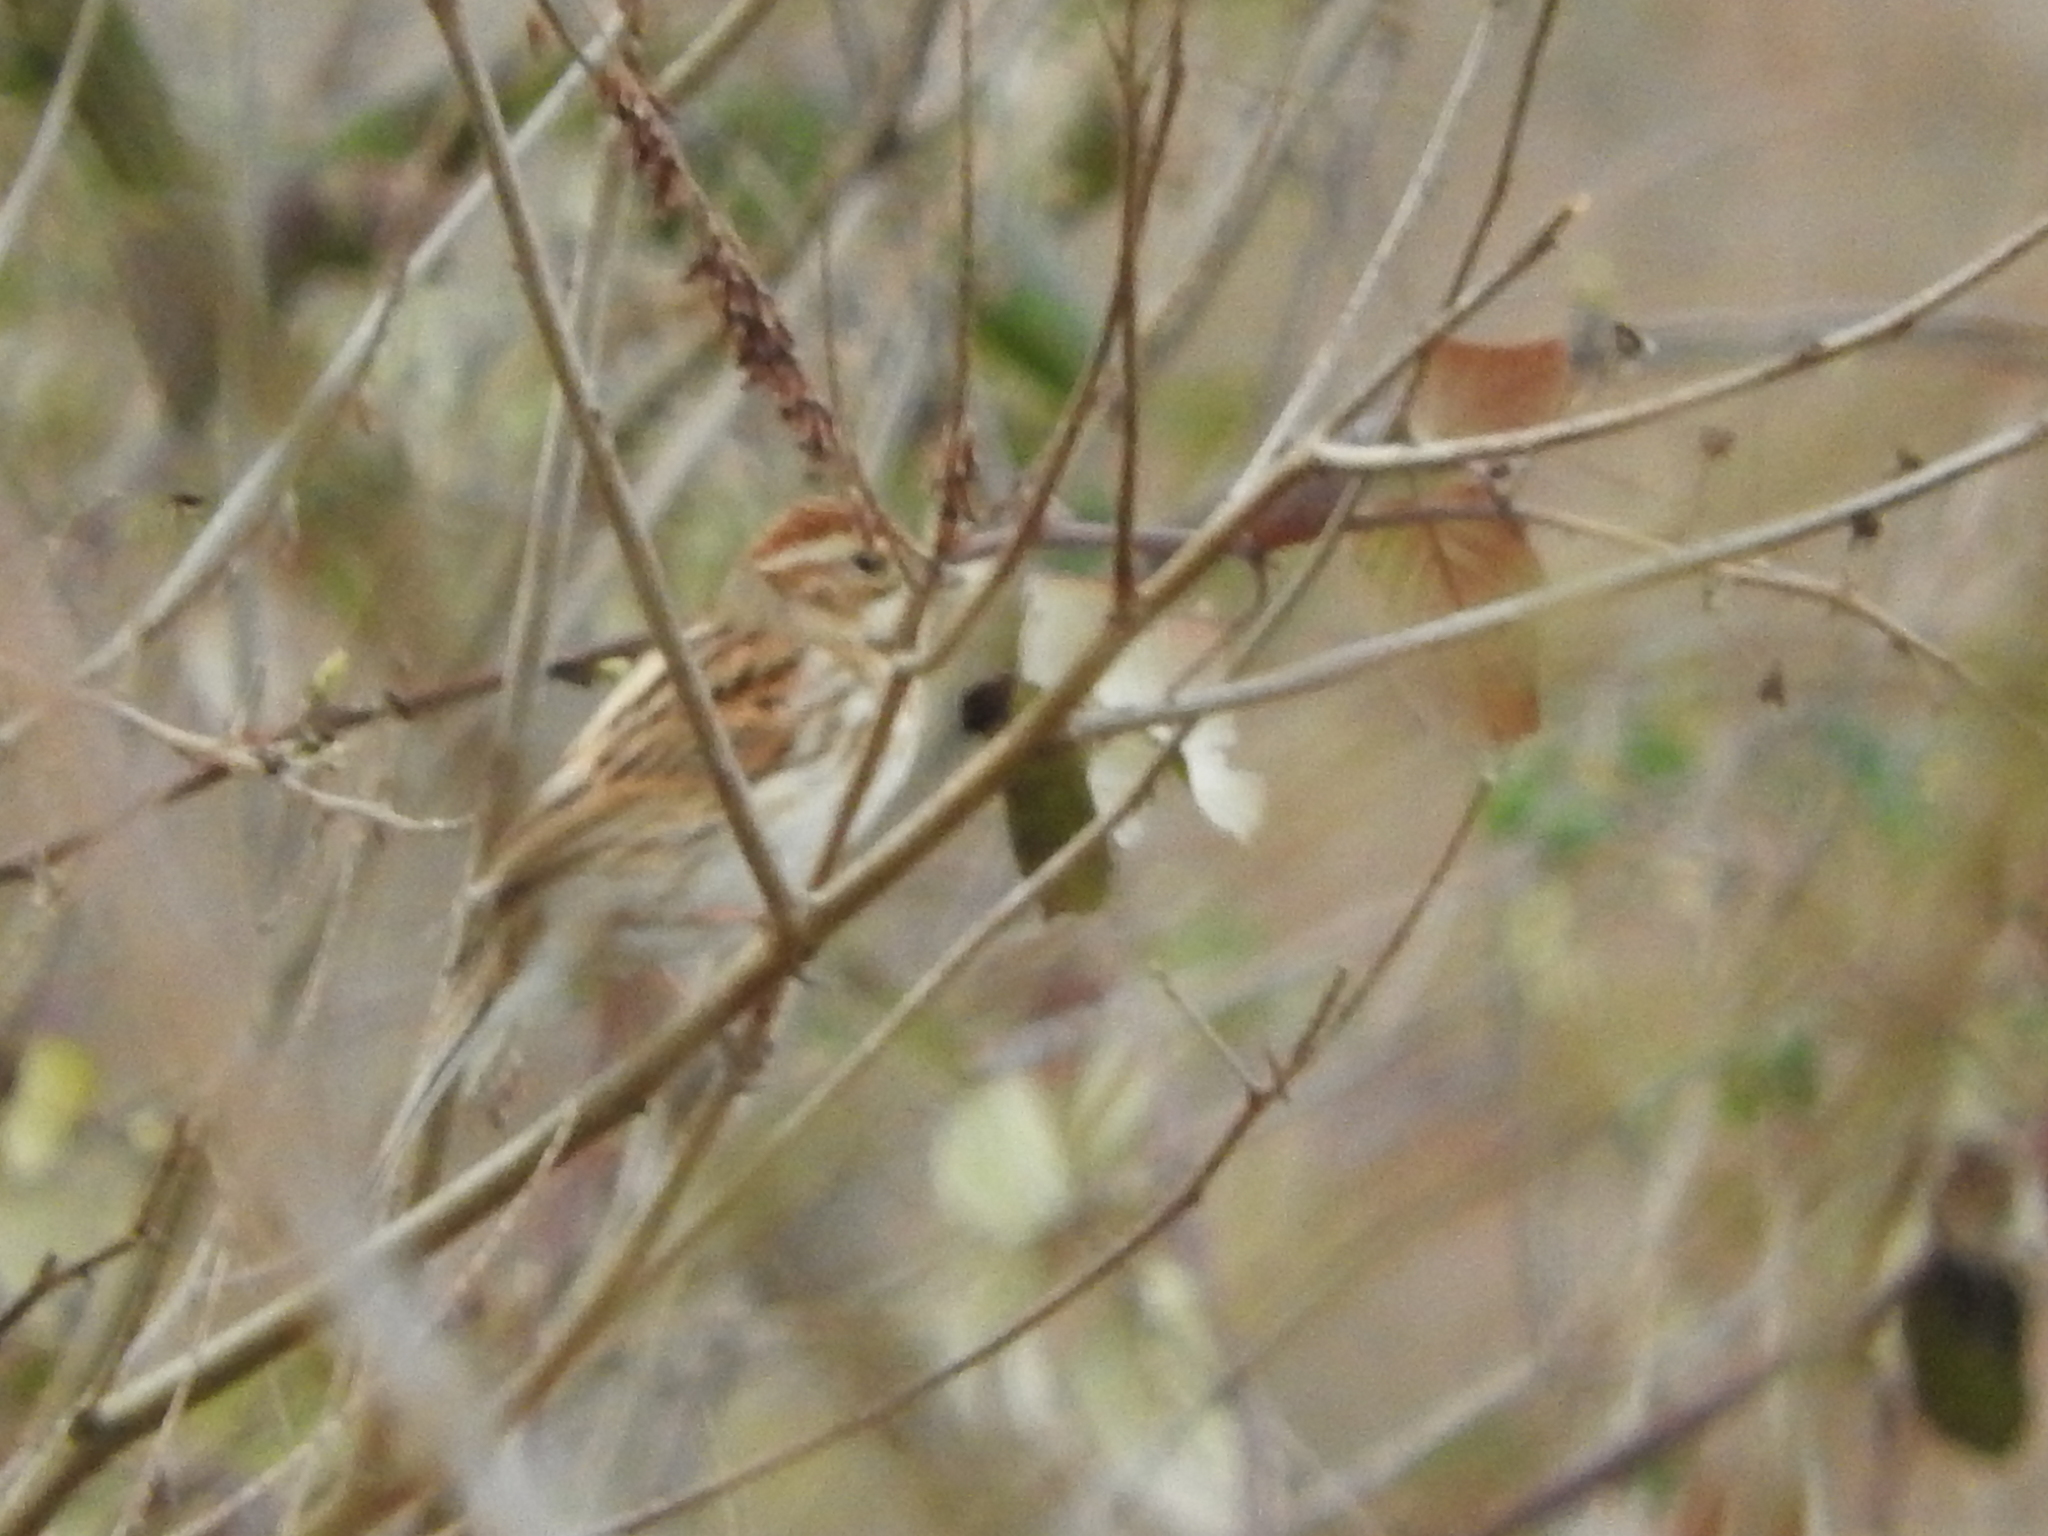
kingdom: Animalia
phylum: Chordata
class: Aves
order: Passeriformes
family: Emberizidae
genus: Emberiza
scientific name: Emberiza schoeniclus
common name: Reed bunting
